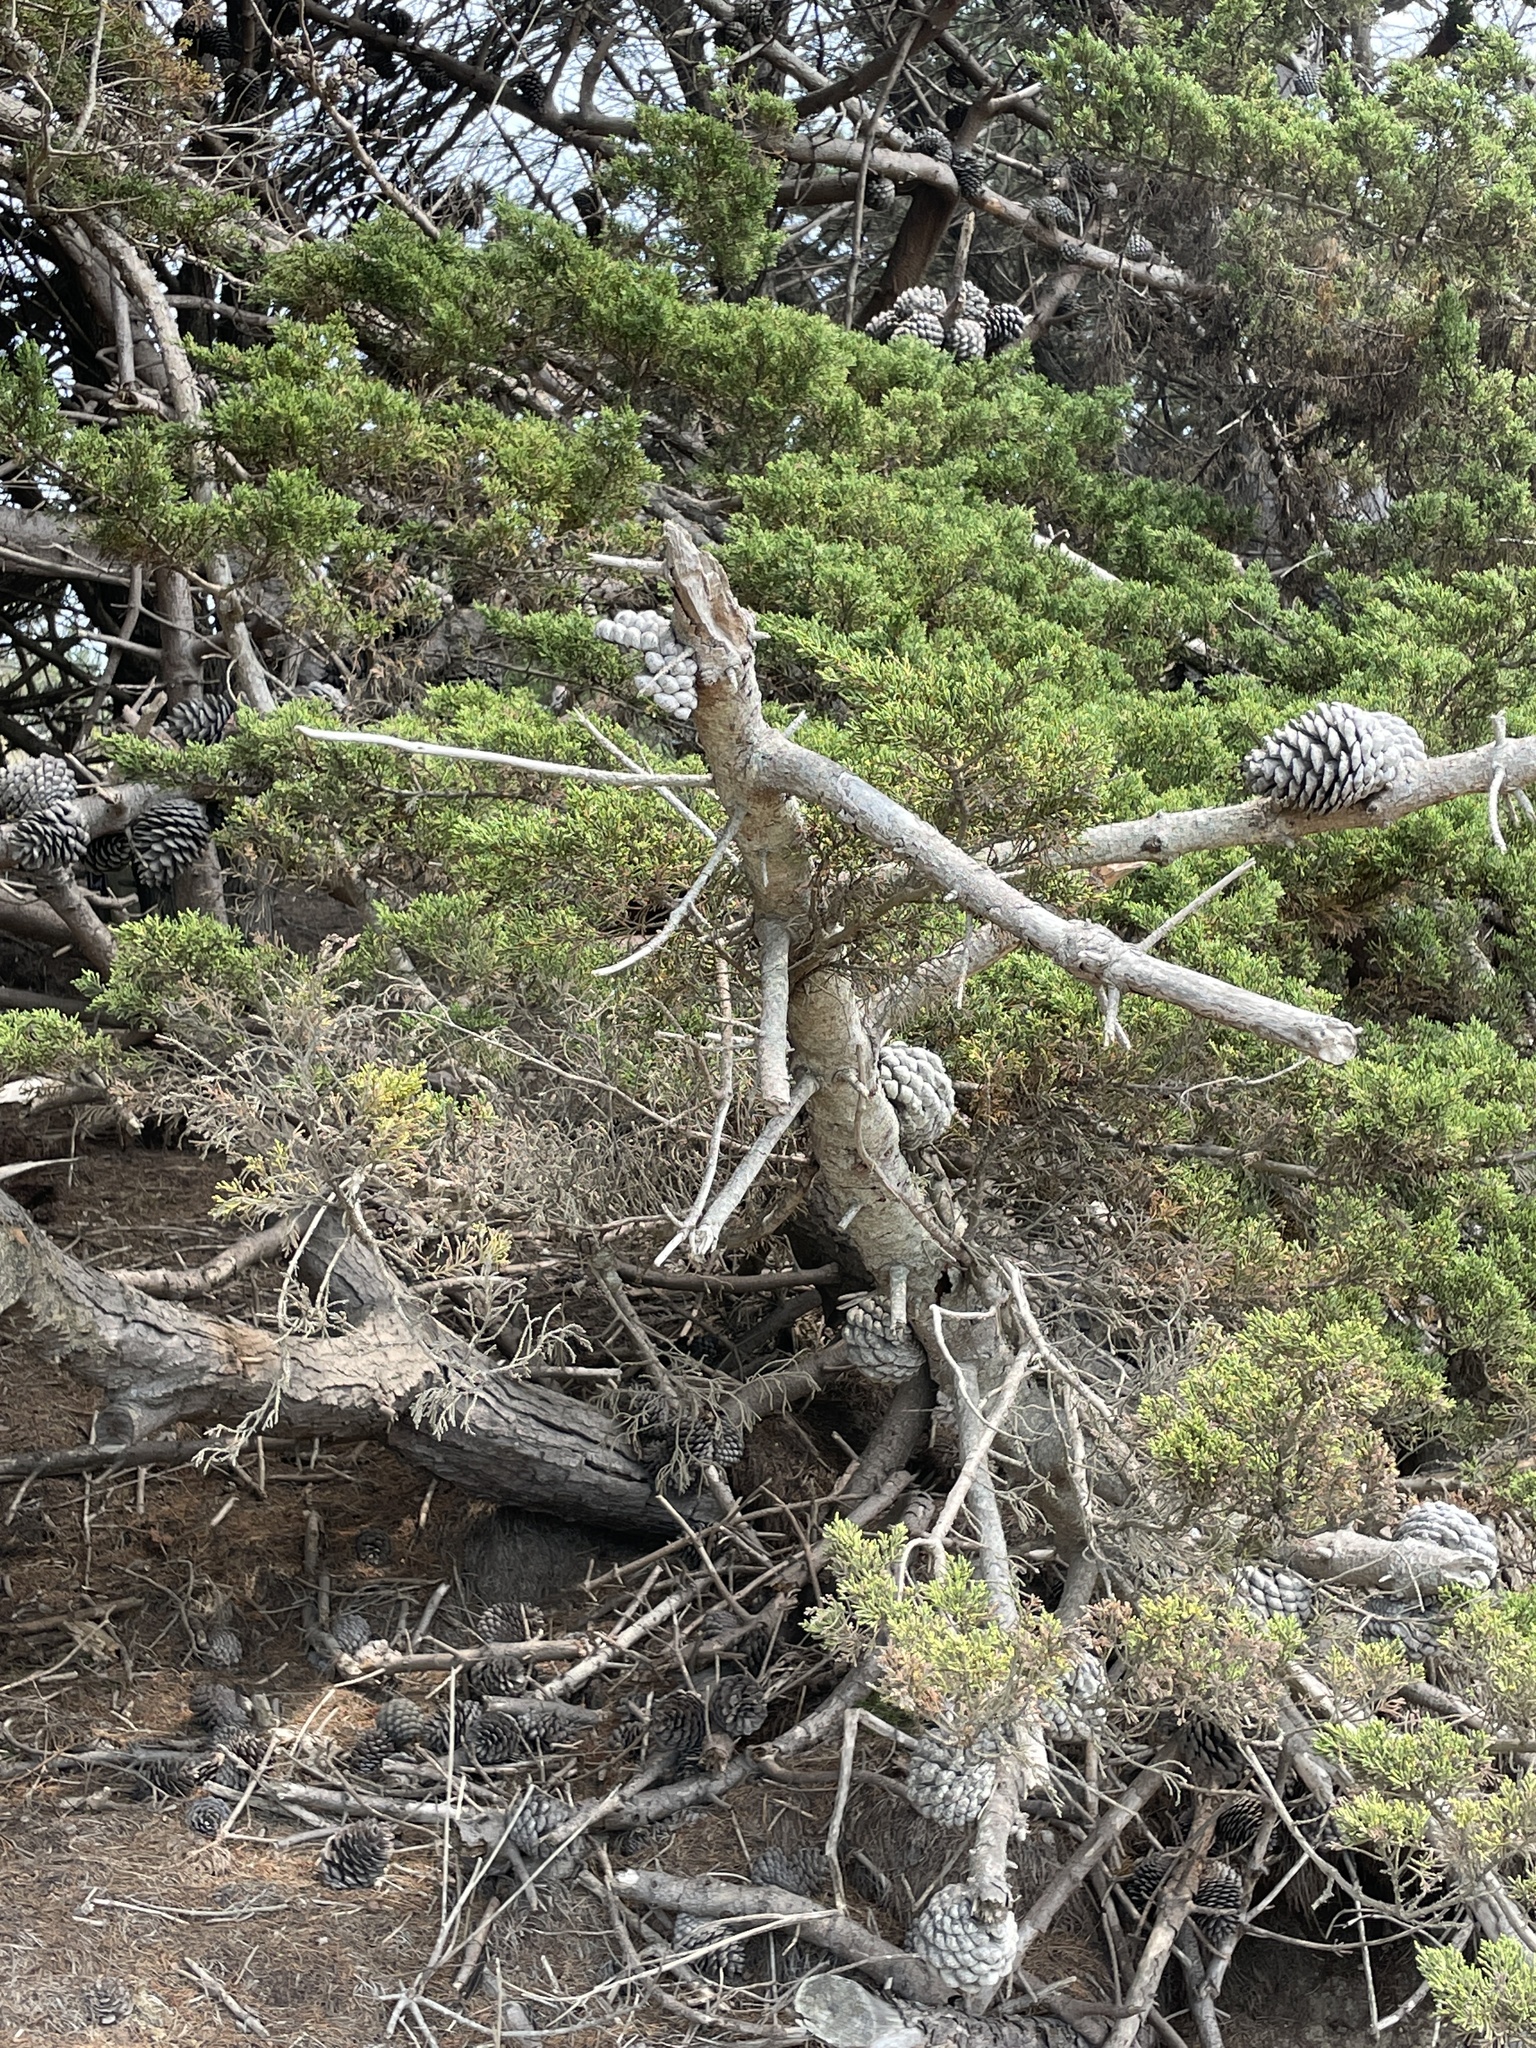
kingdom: Plantae
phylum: Tracheophyta
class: Pinopsida
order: Pinales
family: Pinaceae
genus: Pinus
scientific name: Pinus radiata
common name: Monterey pine
